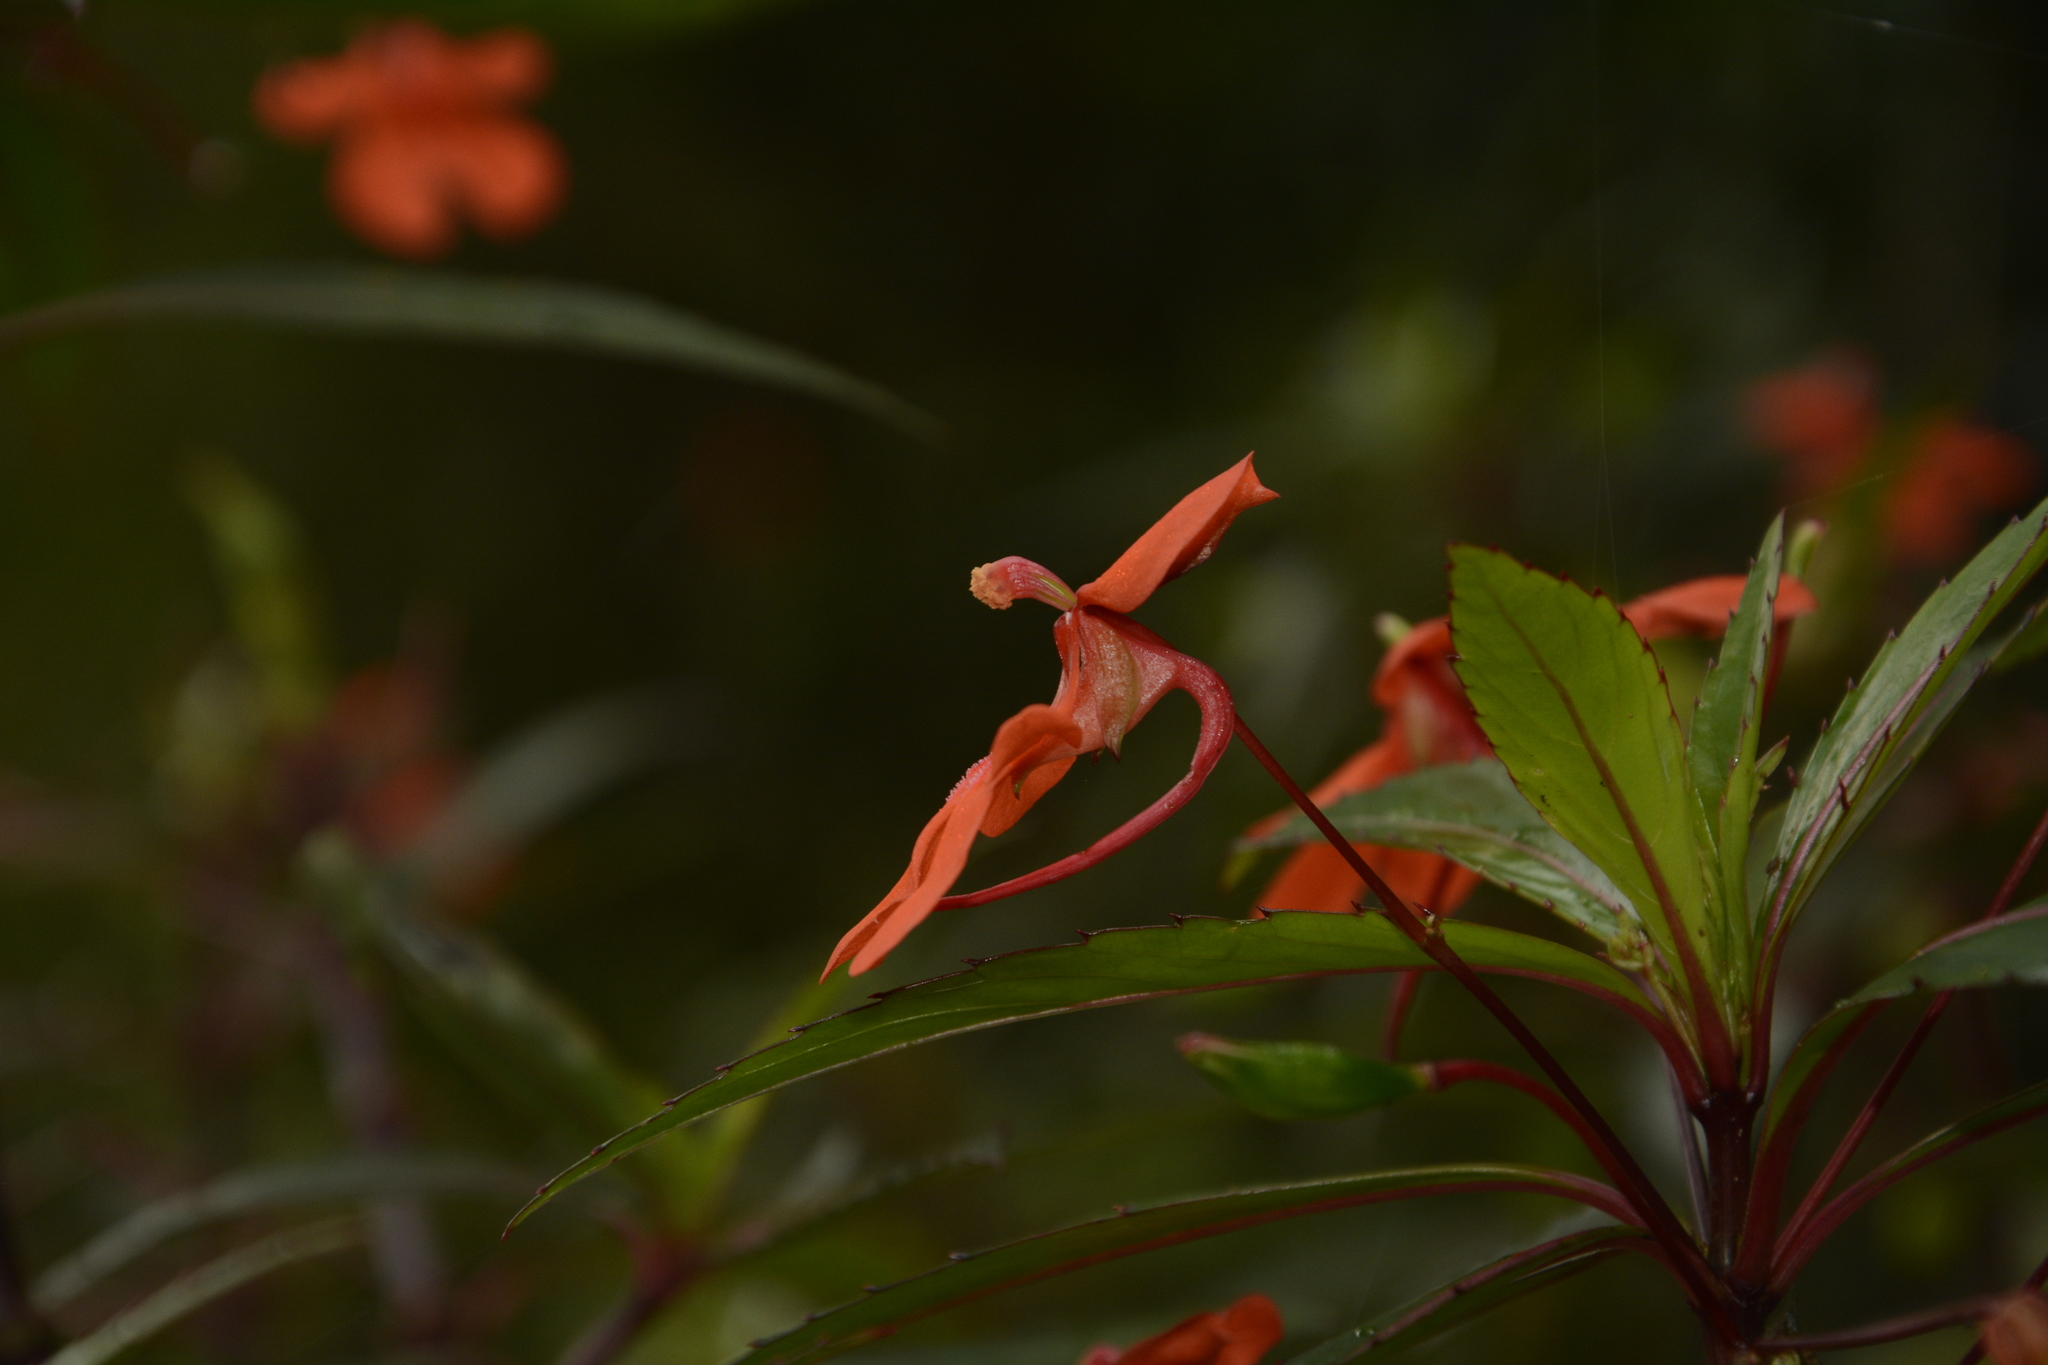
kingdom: Plantae
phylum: Tracheophyta
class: Magnoliopsida
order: Ericales
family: Balsaminaceae
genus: Impatiens
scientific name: Impatiens verticillata
